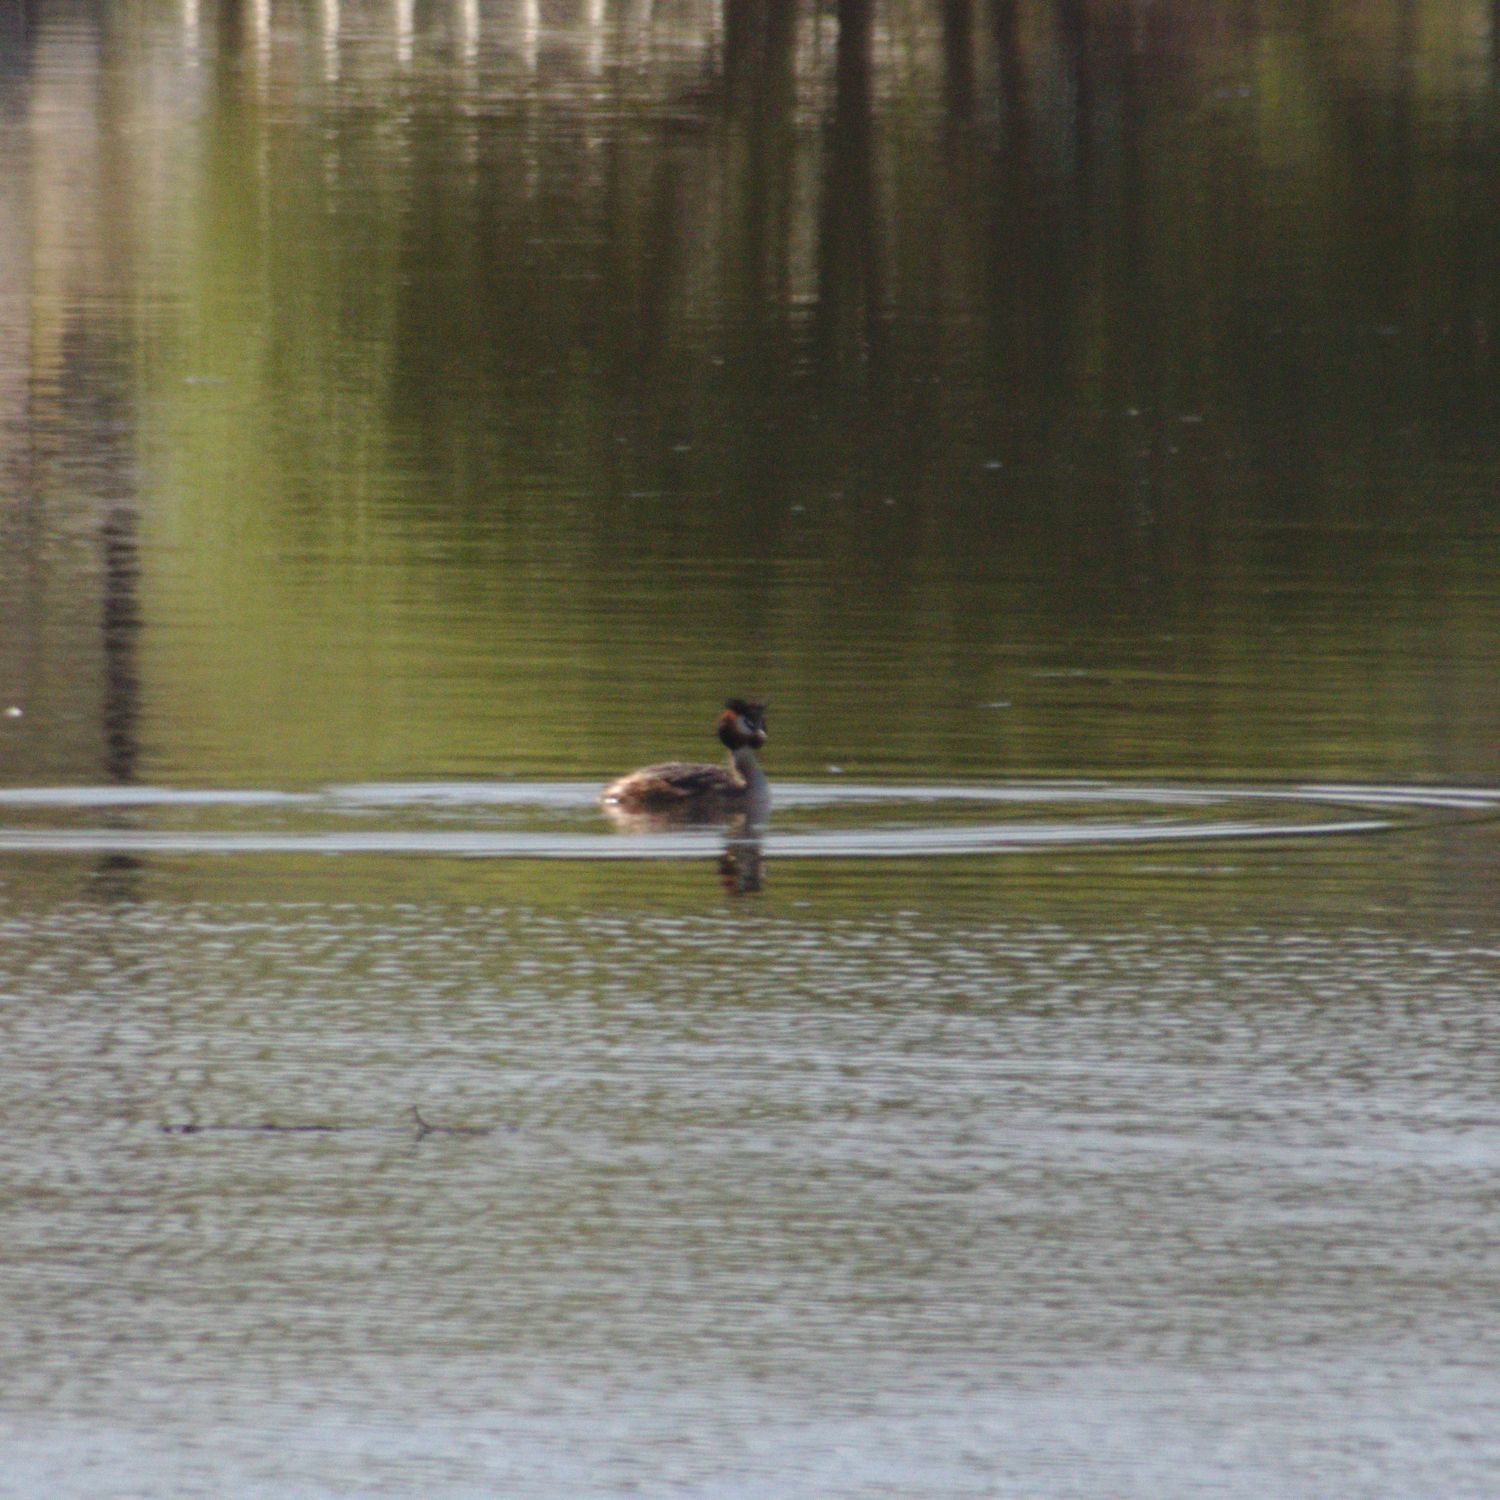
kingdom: Animalia
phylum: Chordata
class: Aves
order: Podicipediformes
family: Podicipedidae
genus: Podiceps
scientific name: Podiceps cristatus
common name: Great crested grebe
